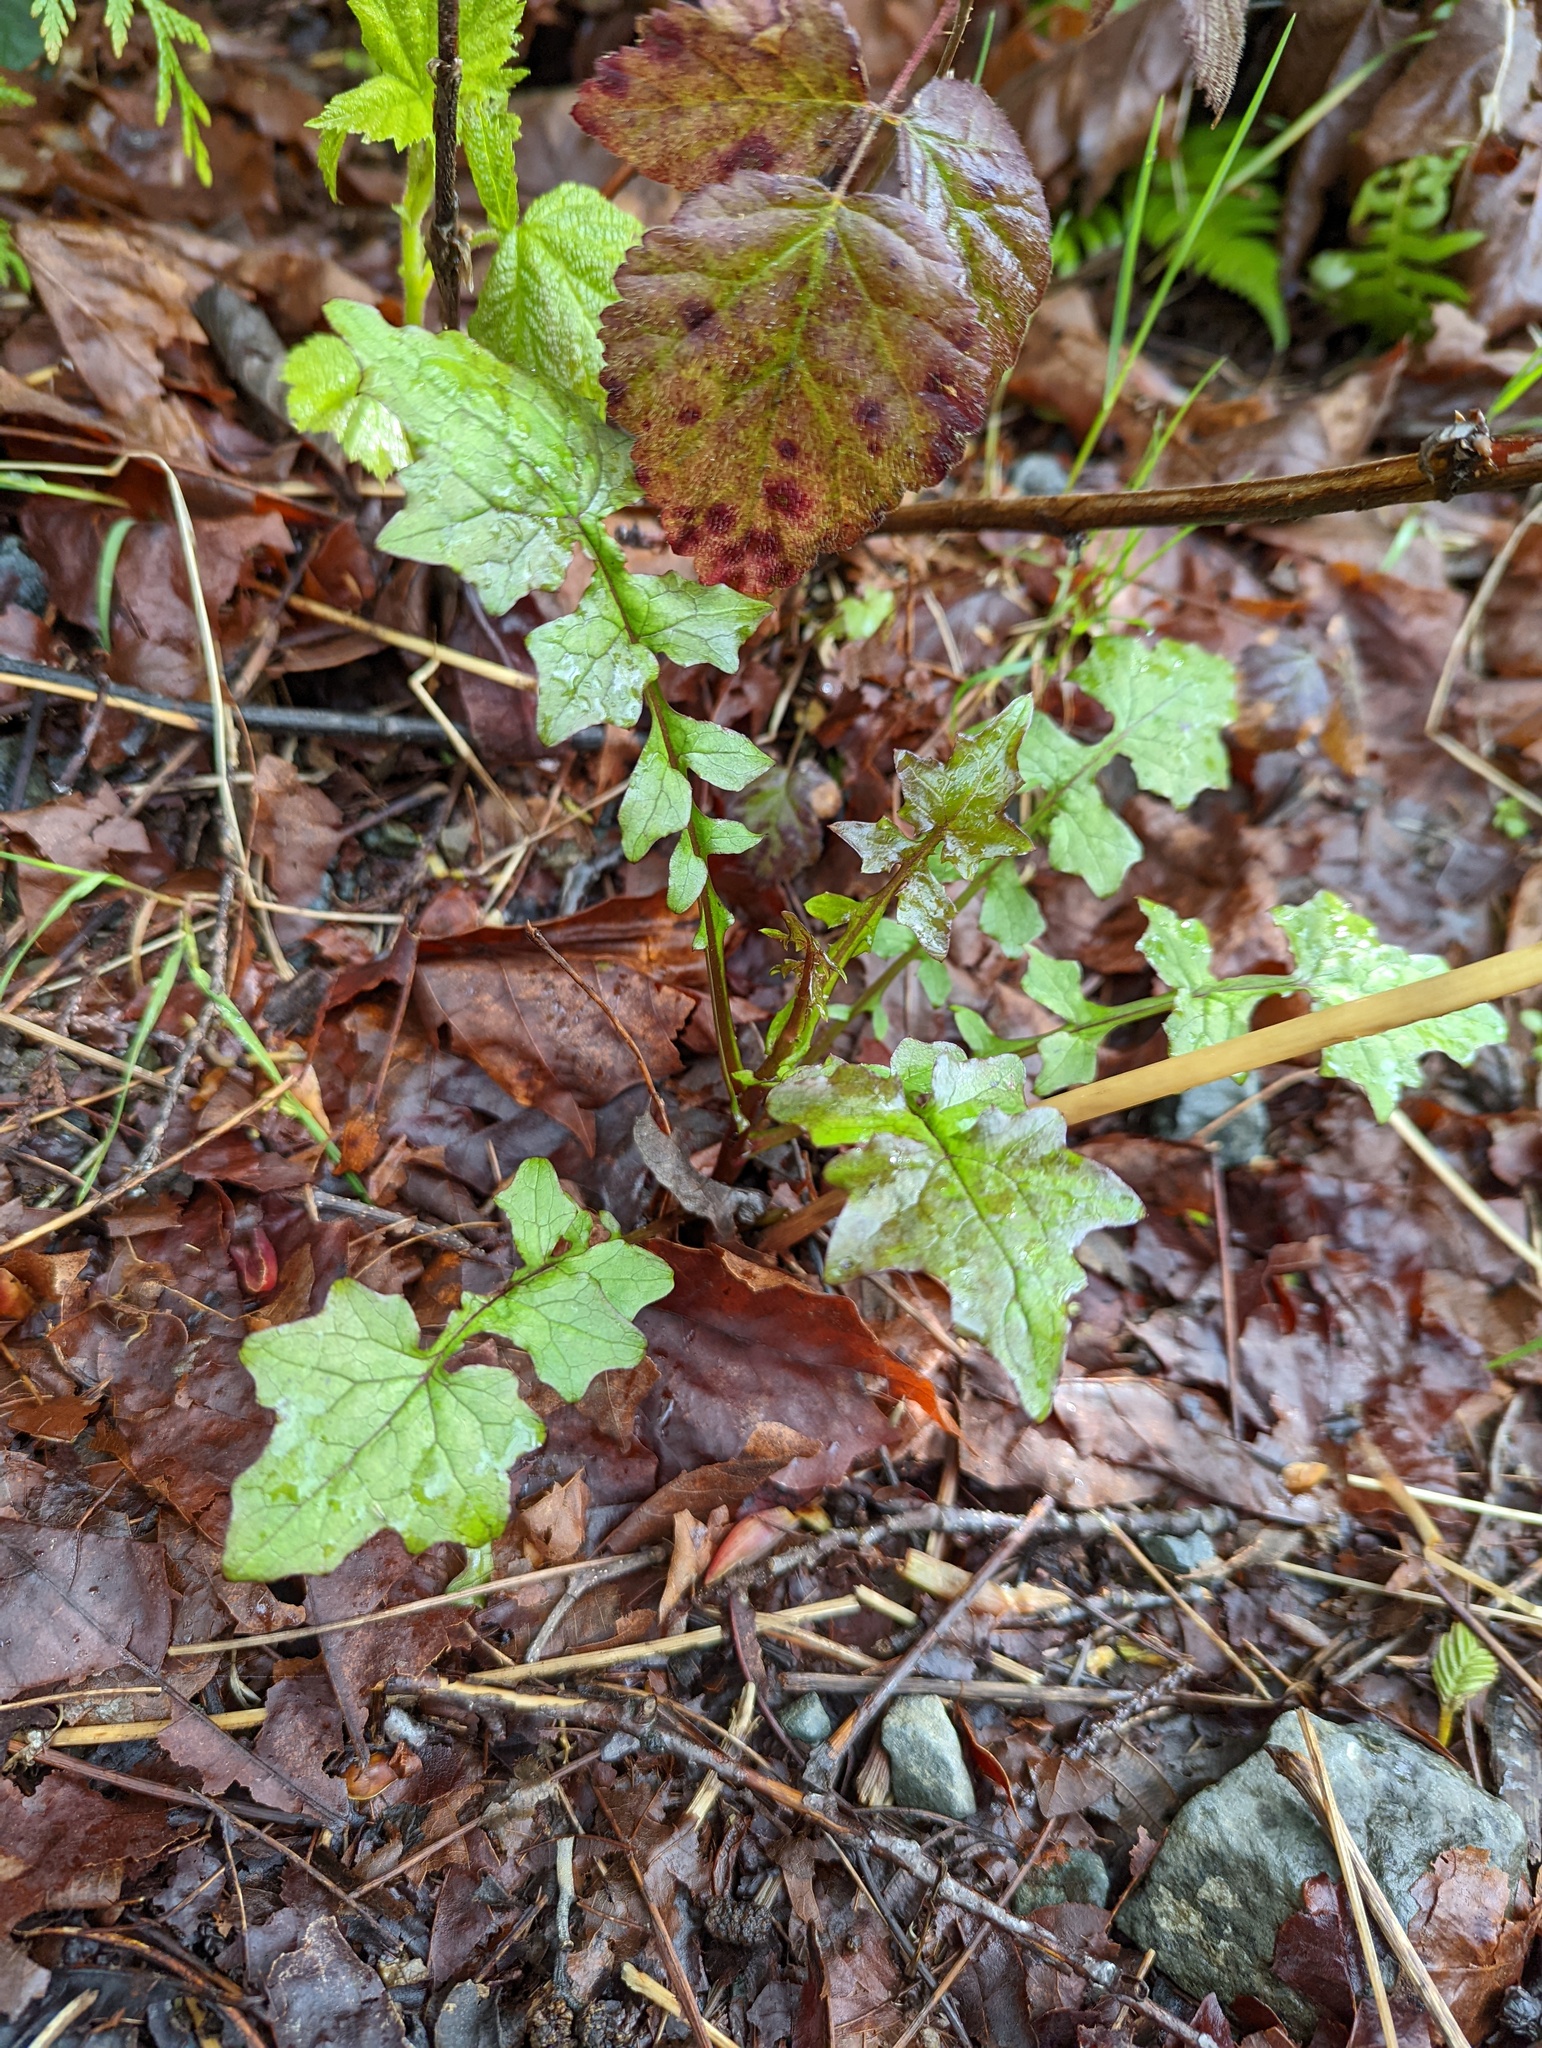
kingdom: Plantae
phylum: Tracheophyta
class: Magnoliopsida
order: Asterales
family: Asteraceae
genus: Mycelis
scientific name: Mycelis muralis
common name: Wall lettuce
